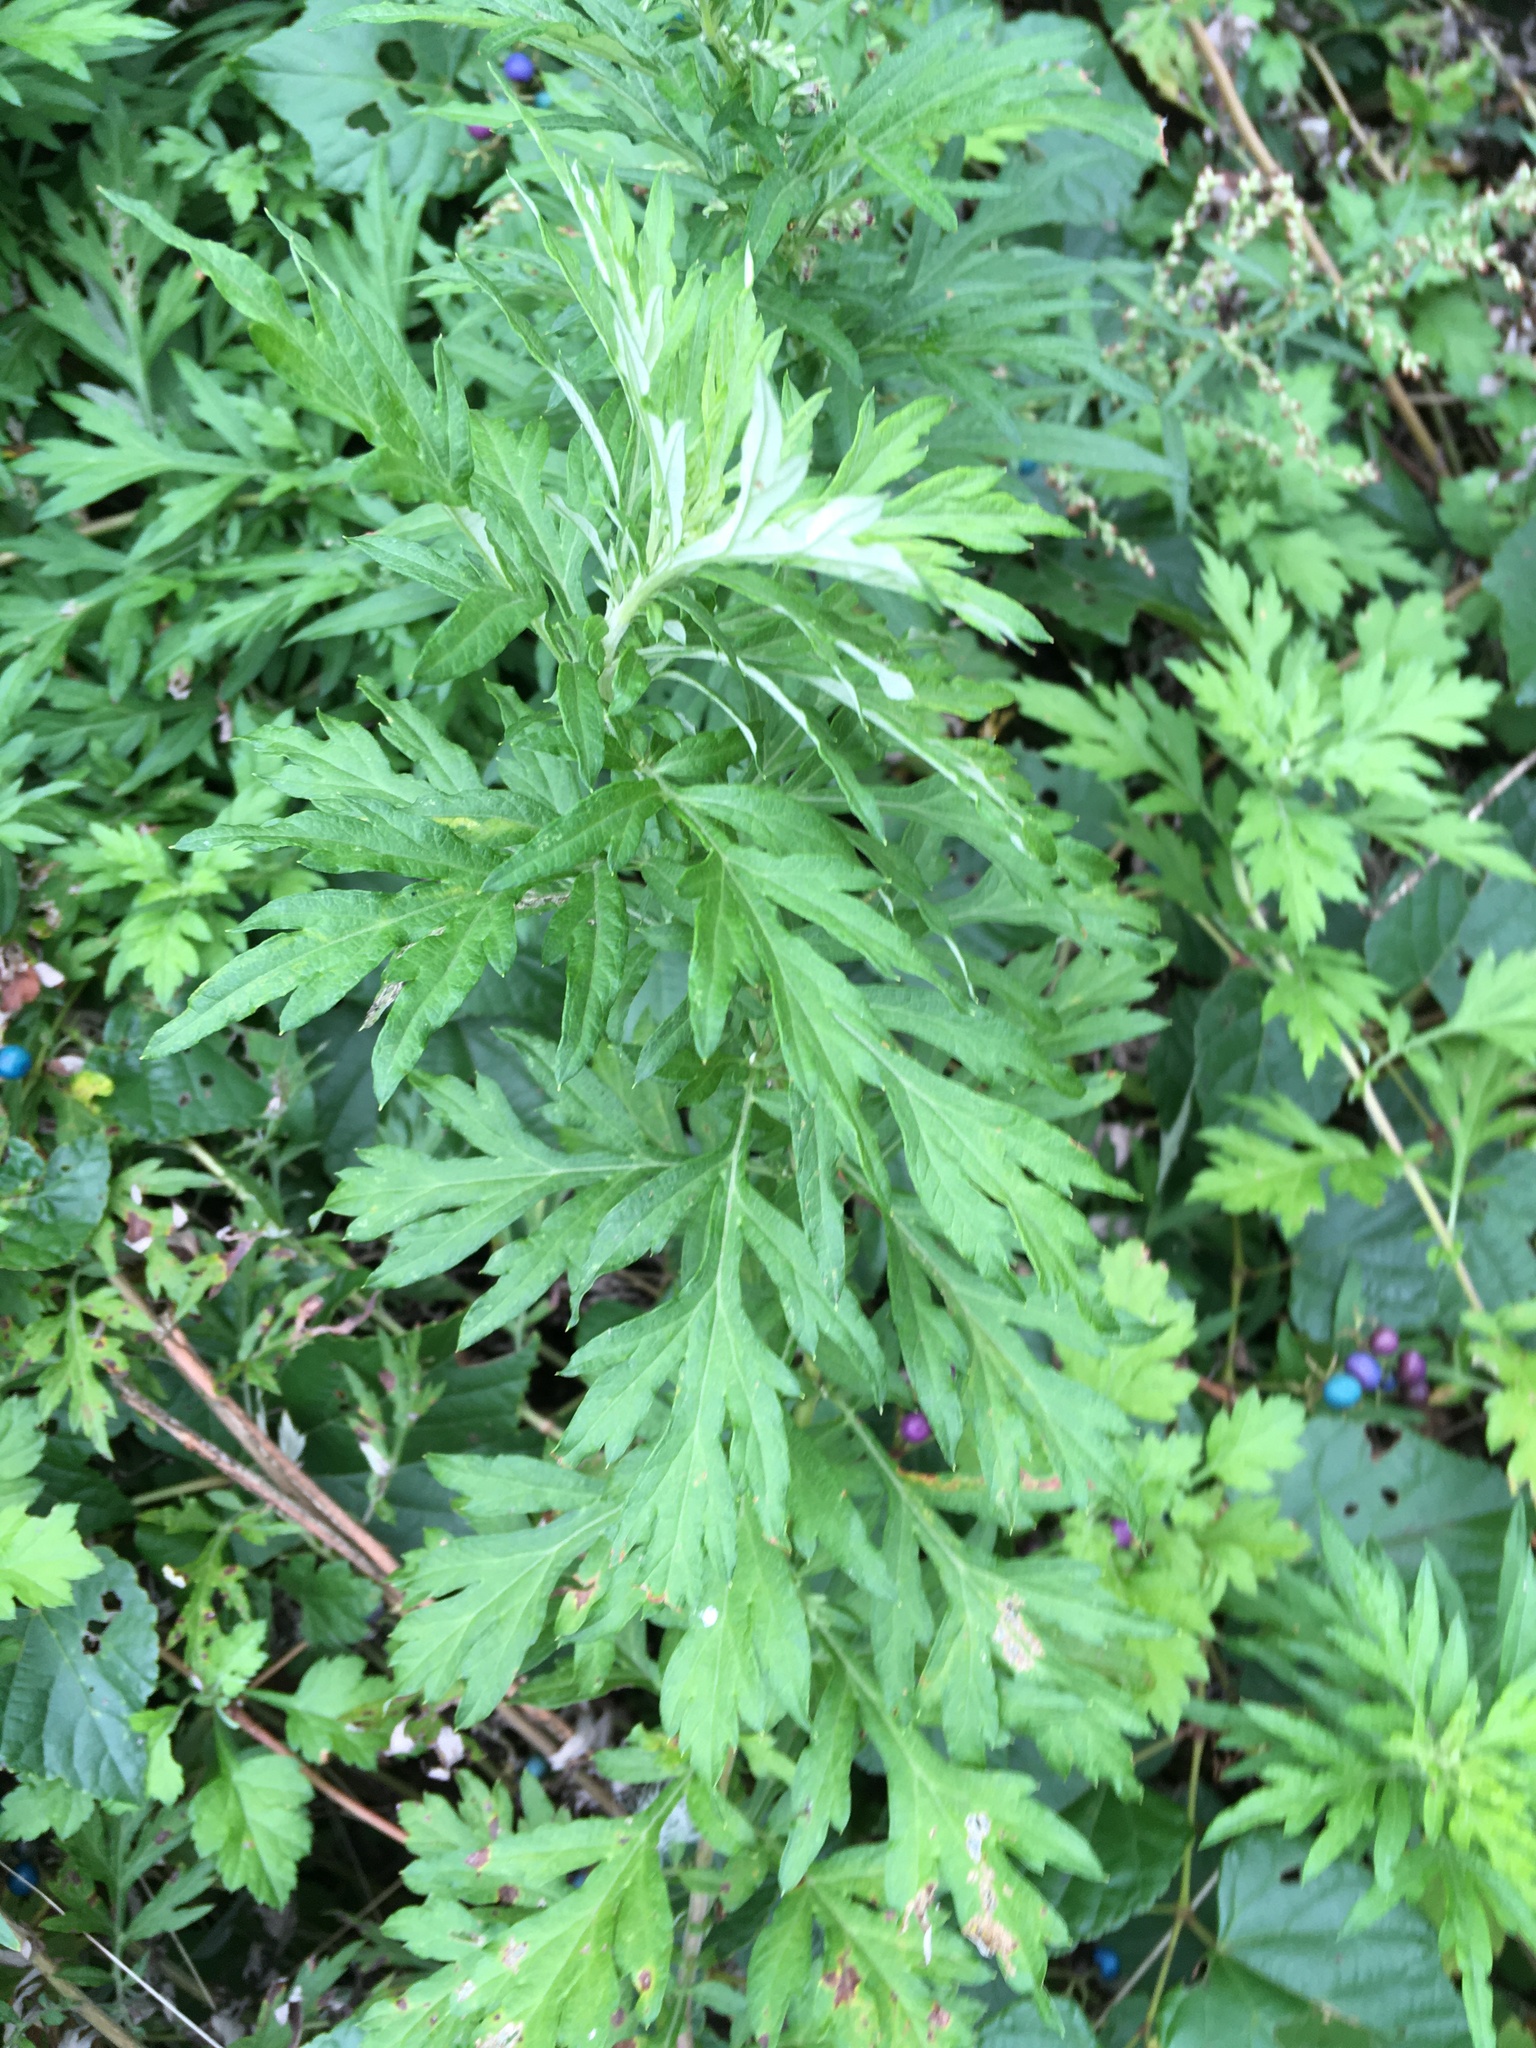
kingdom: Plantae
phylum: Tracheophyta
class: Magnoliopsida
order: Asterales
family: Asteraceae
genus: Artemisia
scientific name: Artemisia vulgaris
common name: Mugwort
